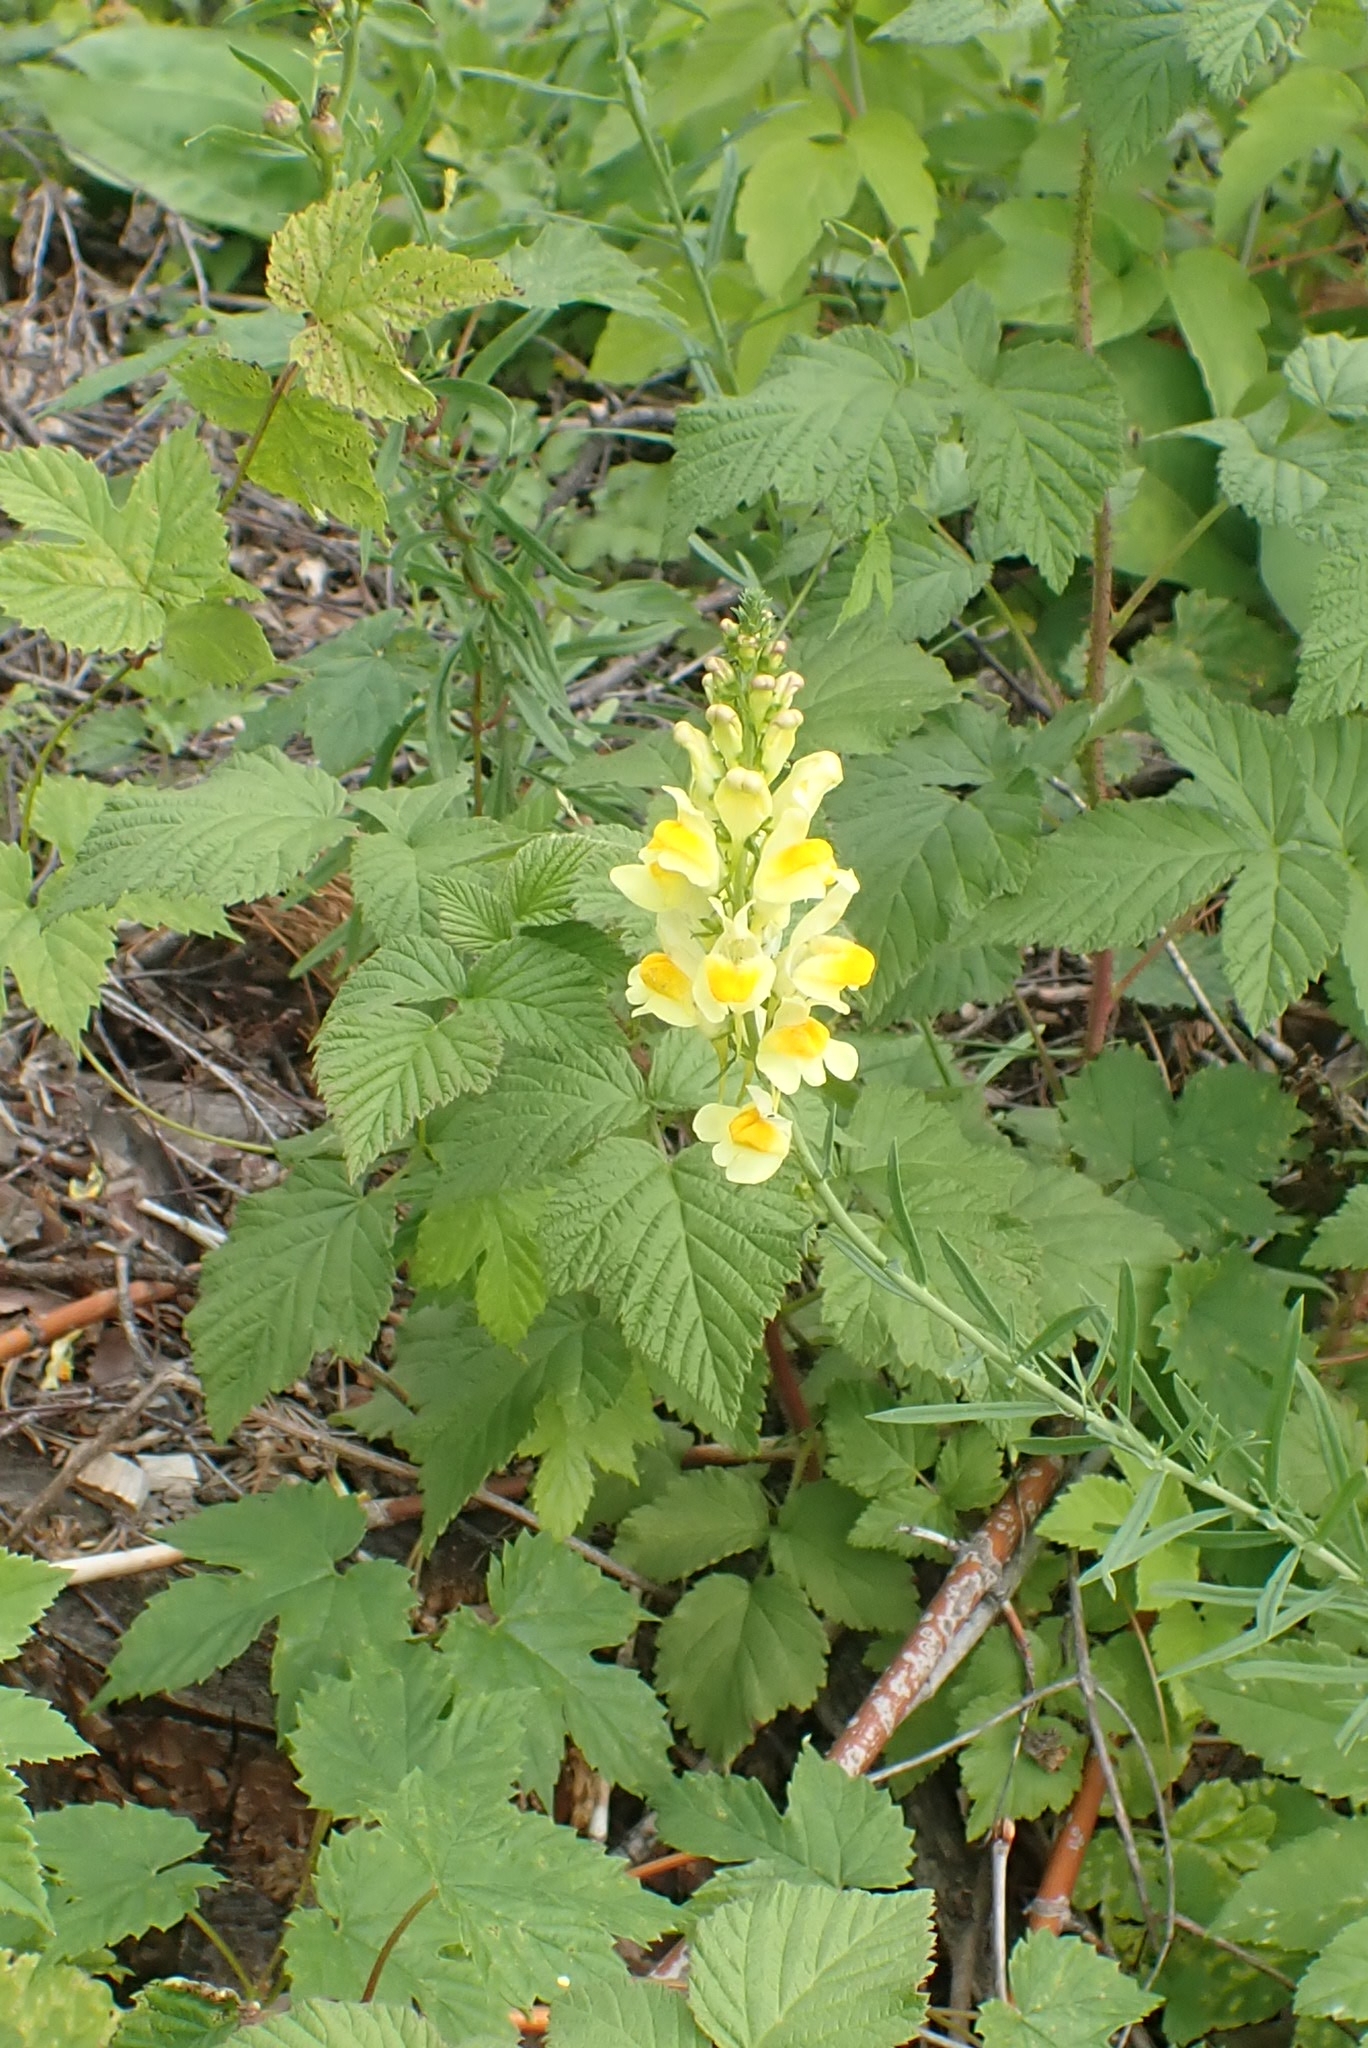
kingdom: Plantae
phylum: Tracheophyta
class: Magnoliopsida
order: Lamiales
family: Plantaginaceae
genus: Linaria
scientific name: Linaria vulgaris
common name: Butter and eggs
